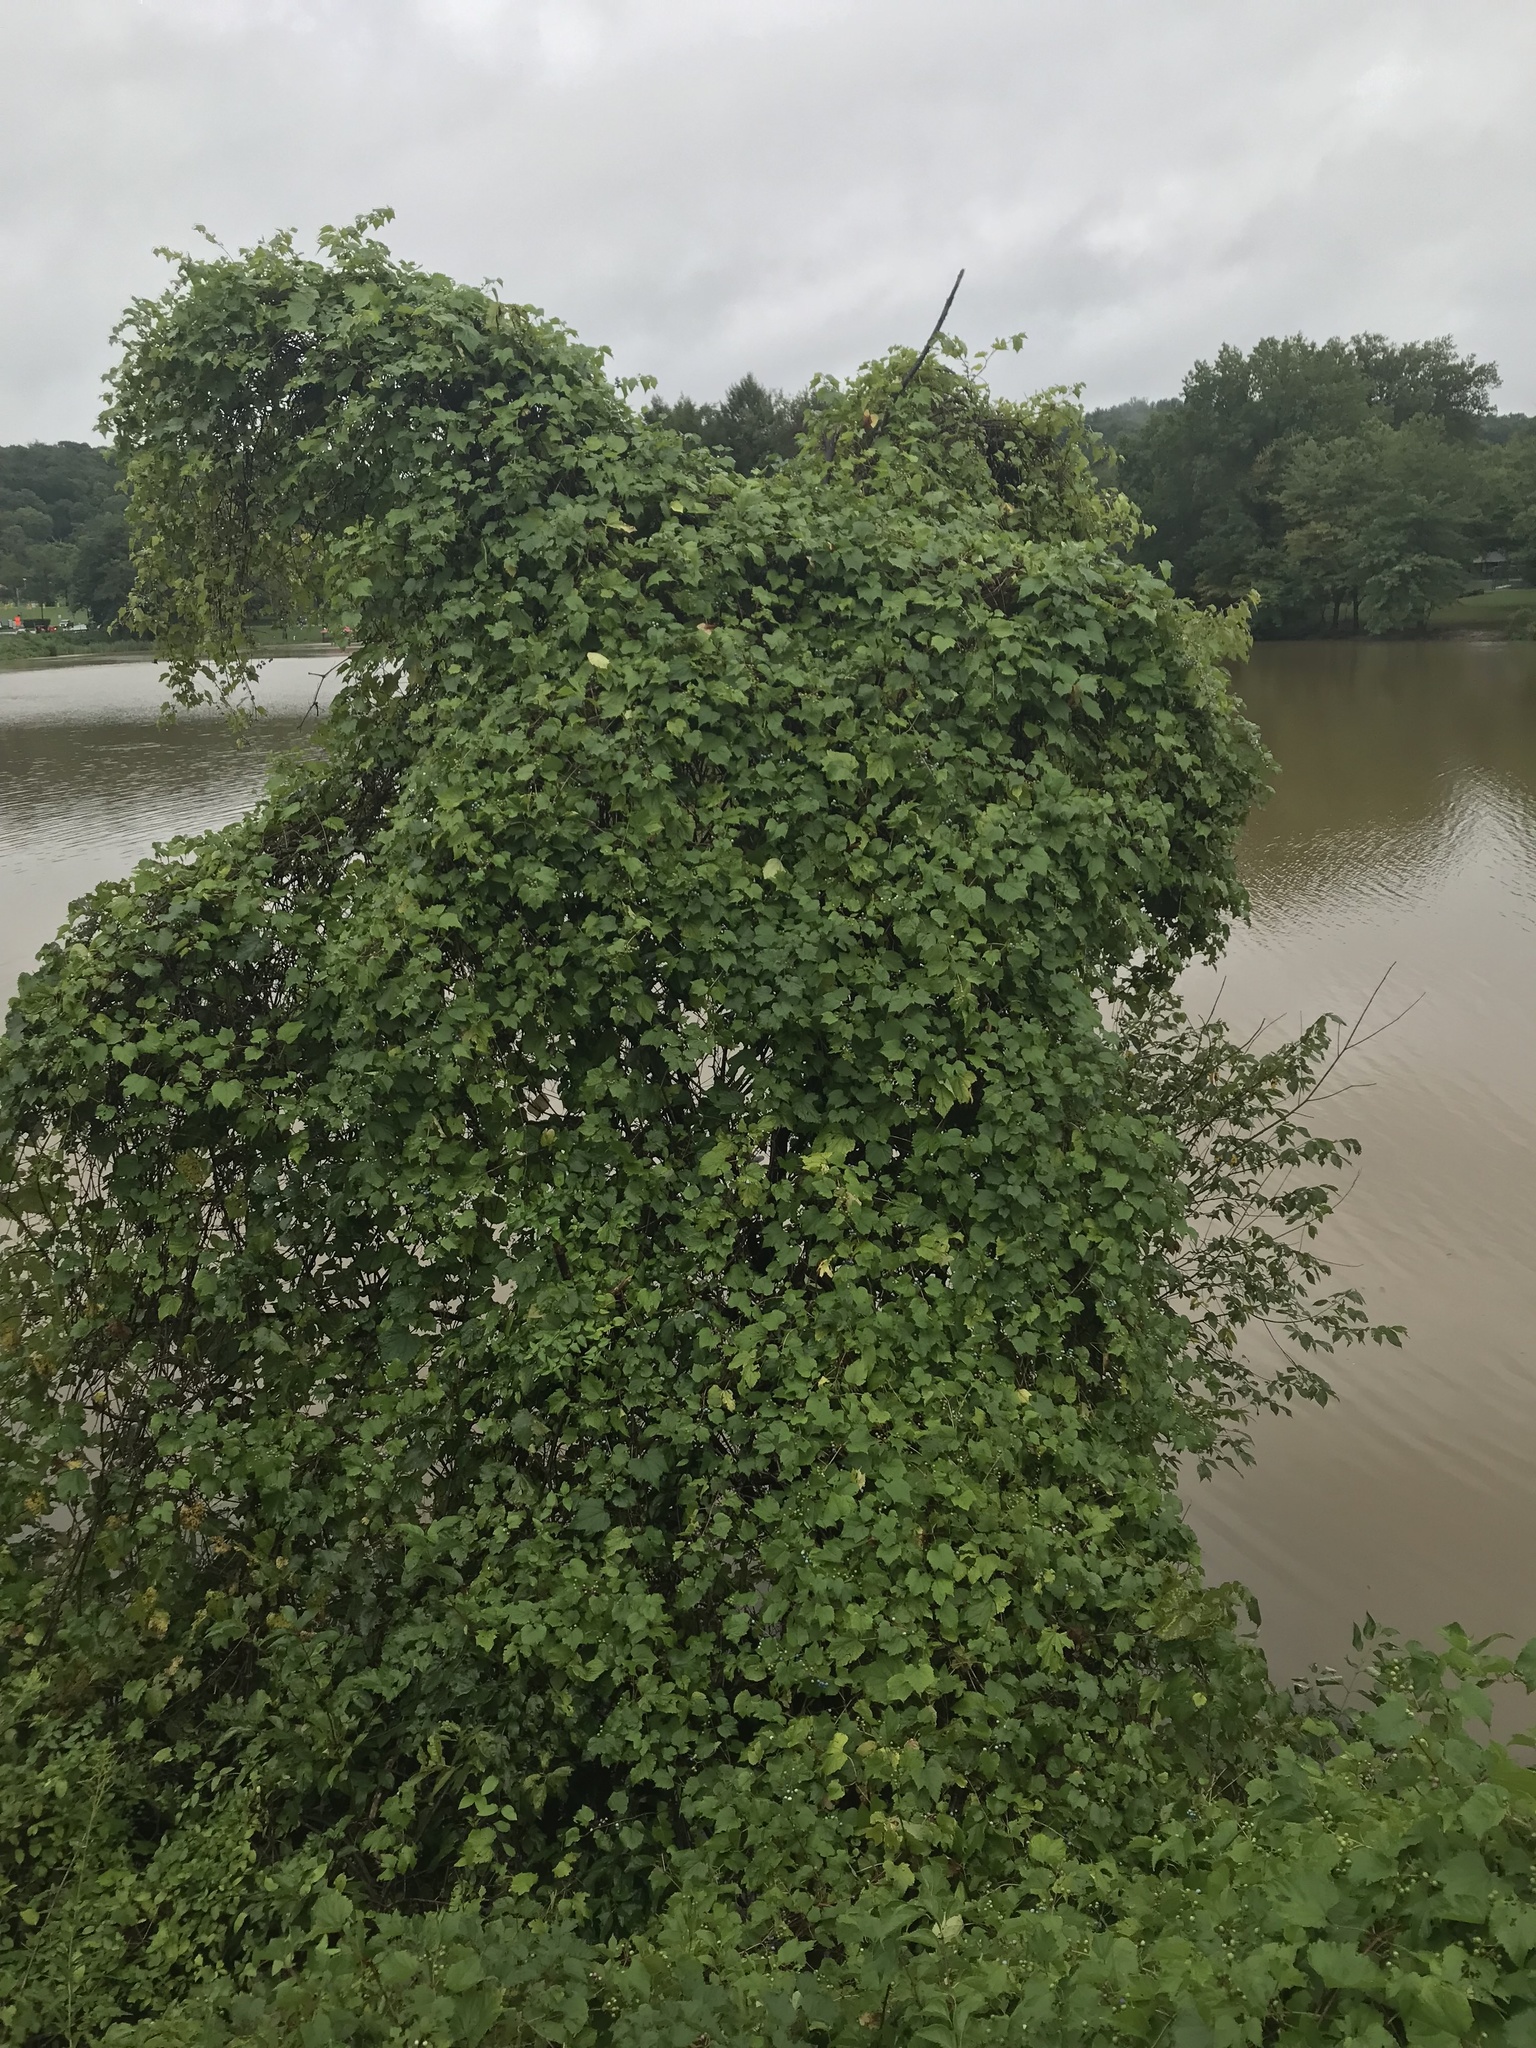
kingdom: Plantae
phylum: Tracheophyta
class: Magnoliopsida
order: Vitales
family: Vitaceae
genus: Ampelopsis
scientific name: Ampelopsis glandulosa
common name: Amur peppervine
